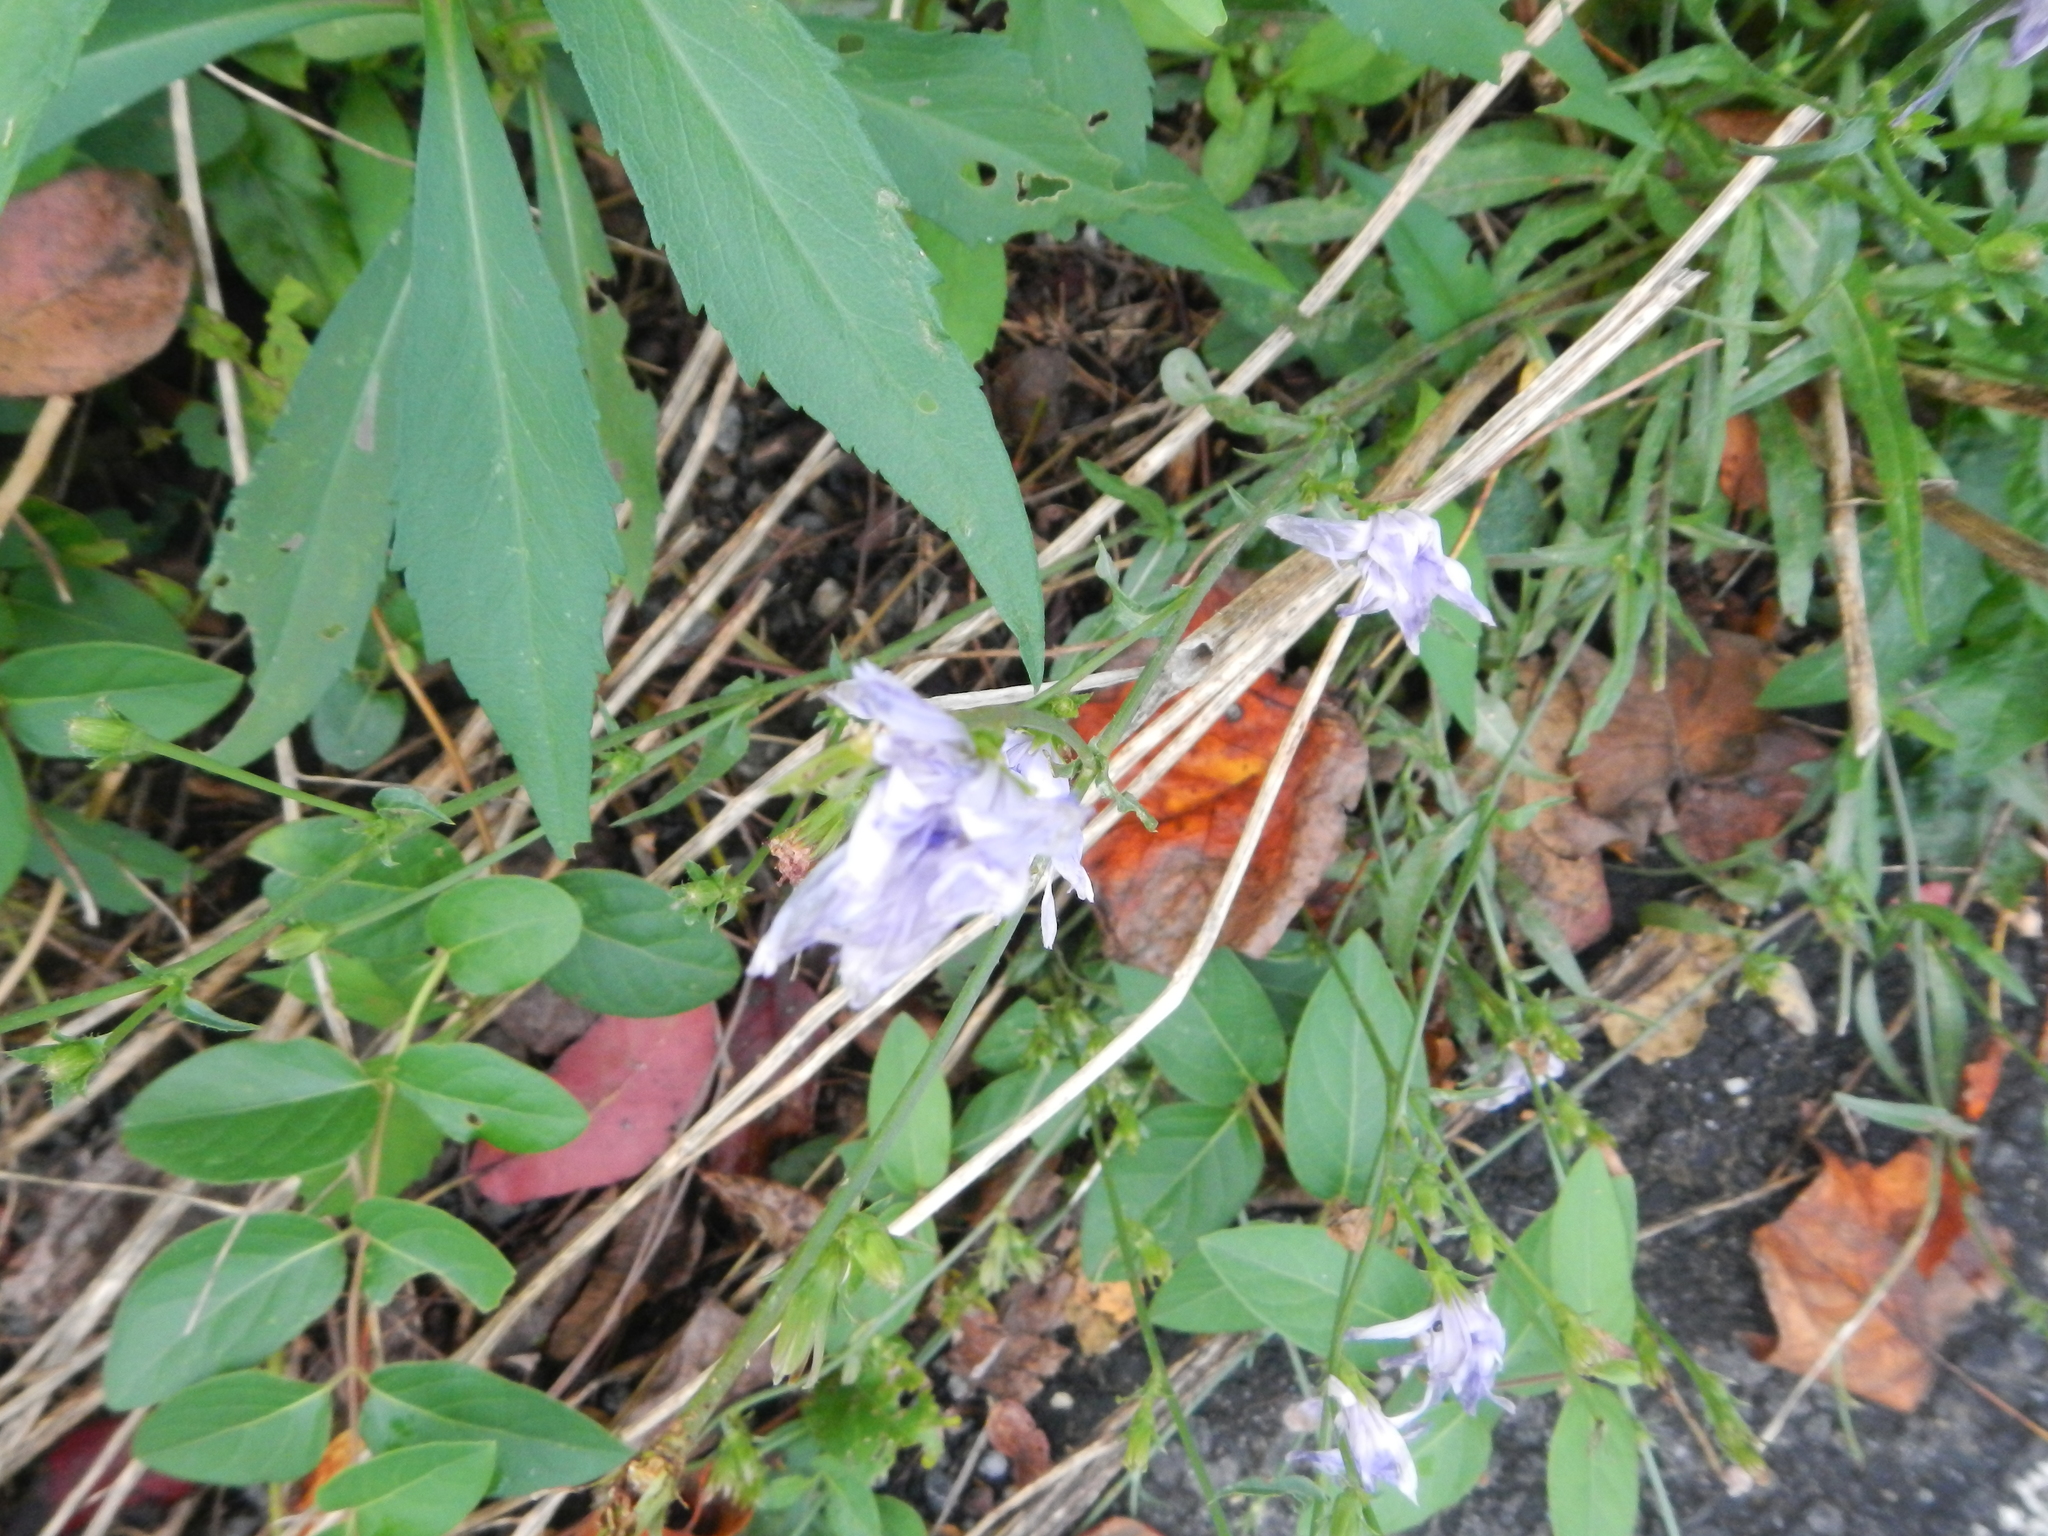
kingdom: Plantae
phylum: Tracheophyta
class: Magnoliopsida
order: Asterales
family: Asteraceae
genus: Cichorium
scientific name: Cichorium intybus
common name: Chicory
